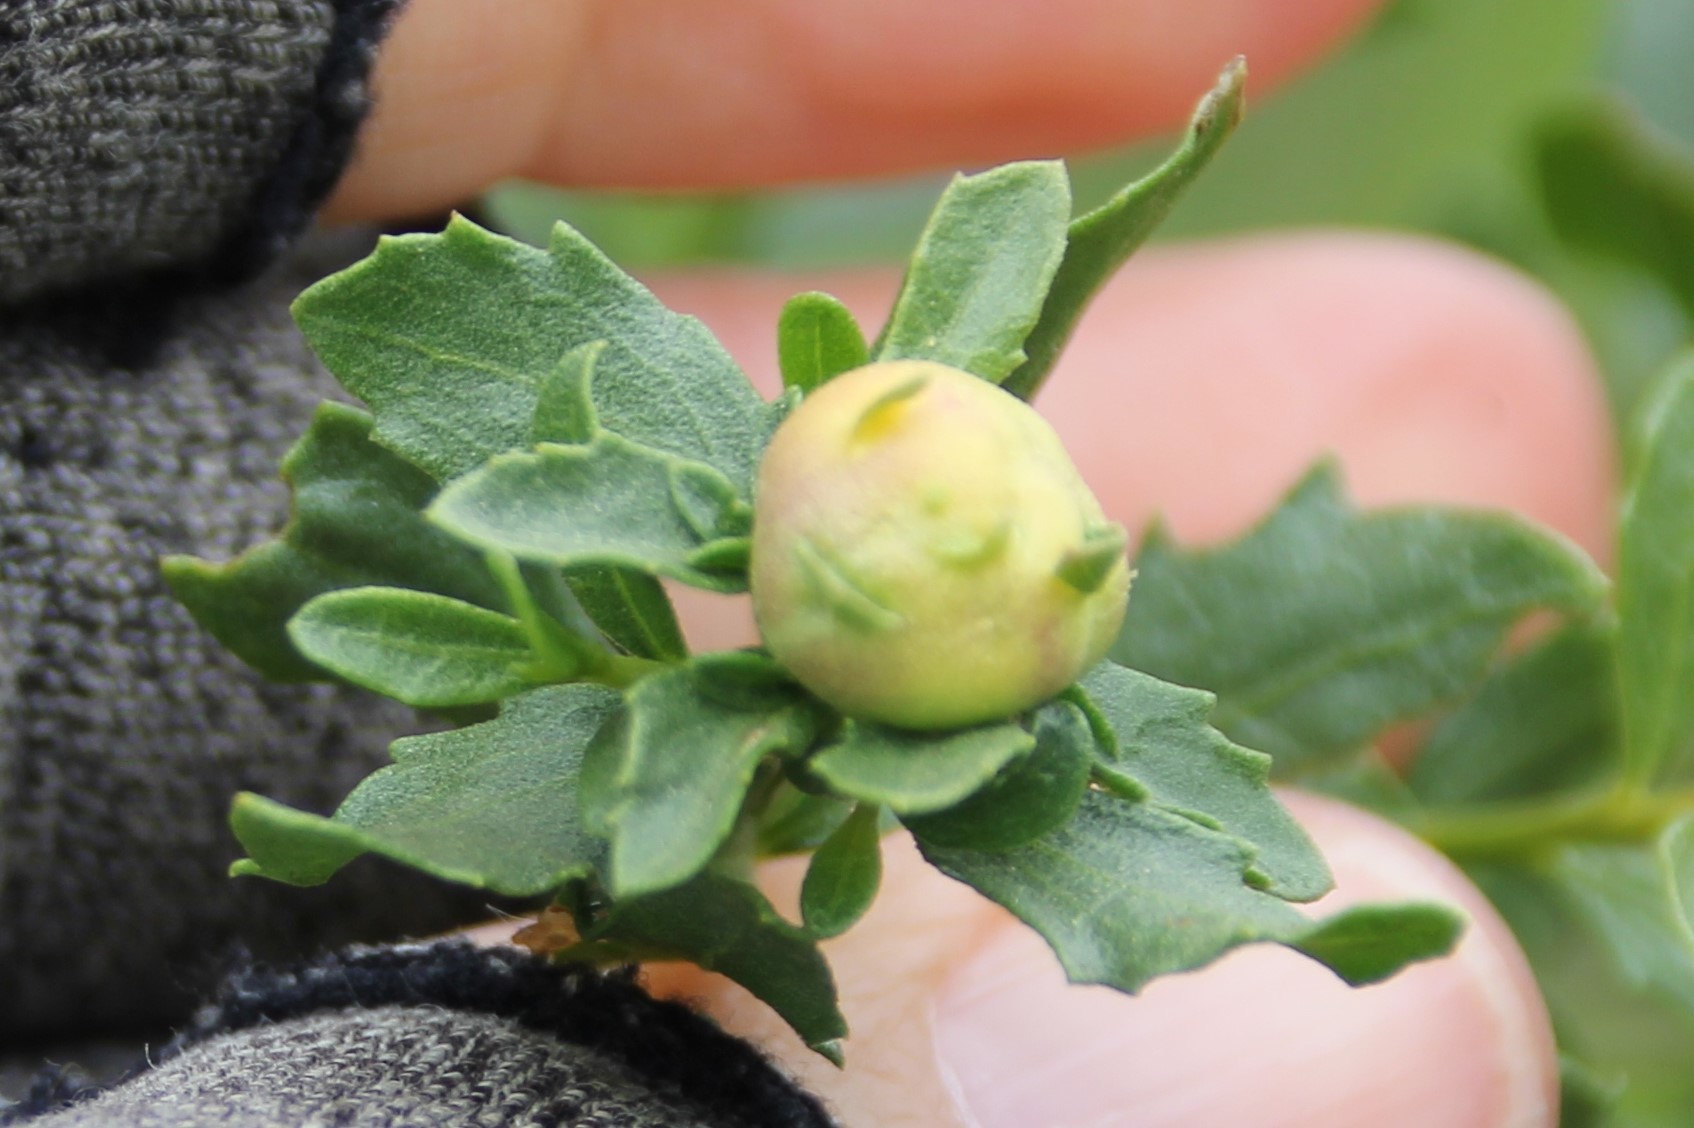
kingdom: Animalia
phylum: Arthropoda
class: Insecta
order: Diptera
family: Cecidomyiidae
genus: Rhopalomyia
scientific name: Rhopalomyia californica
